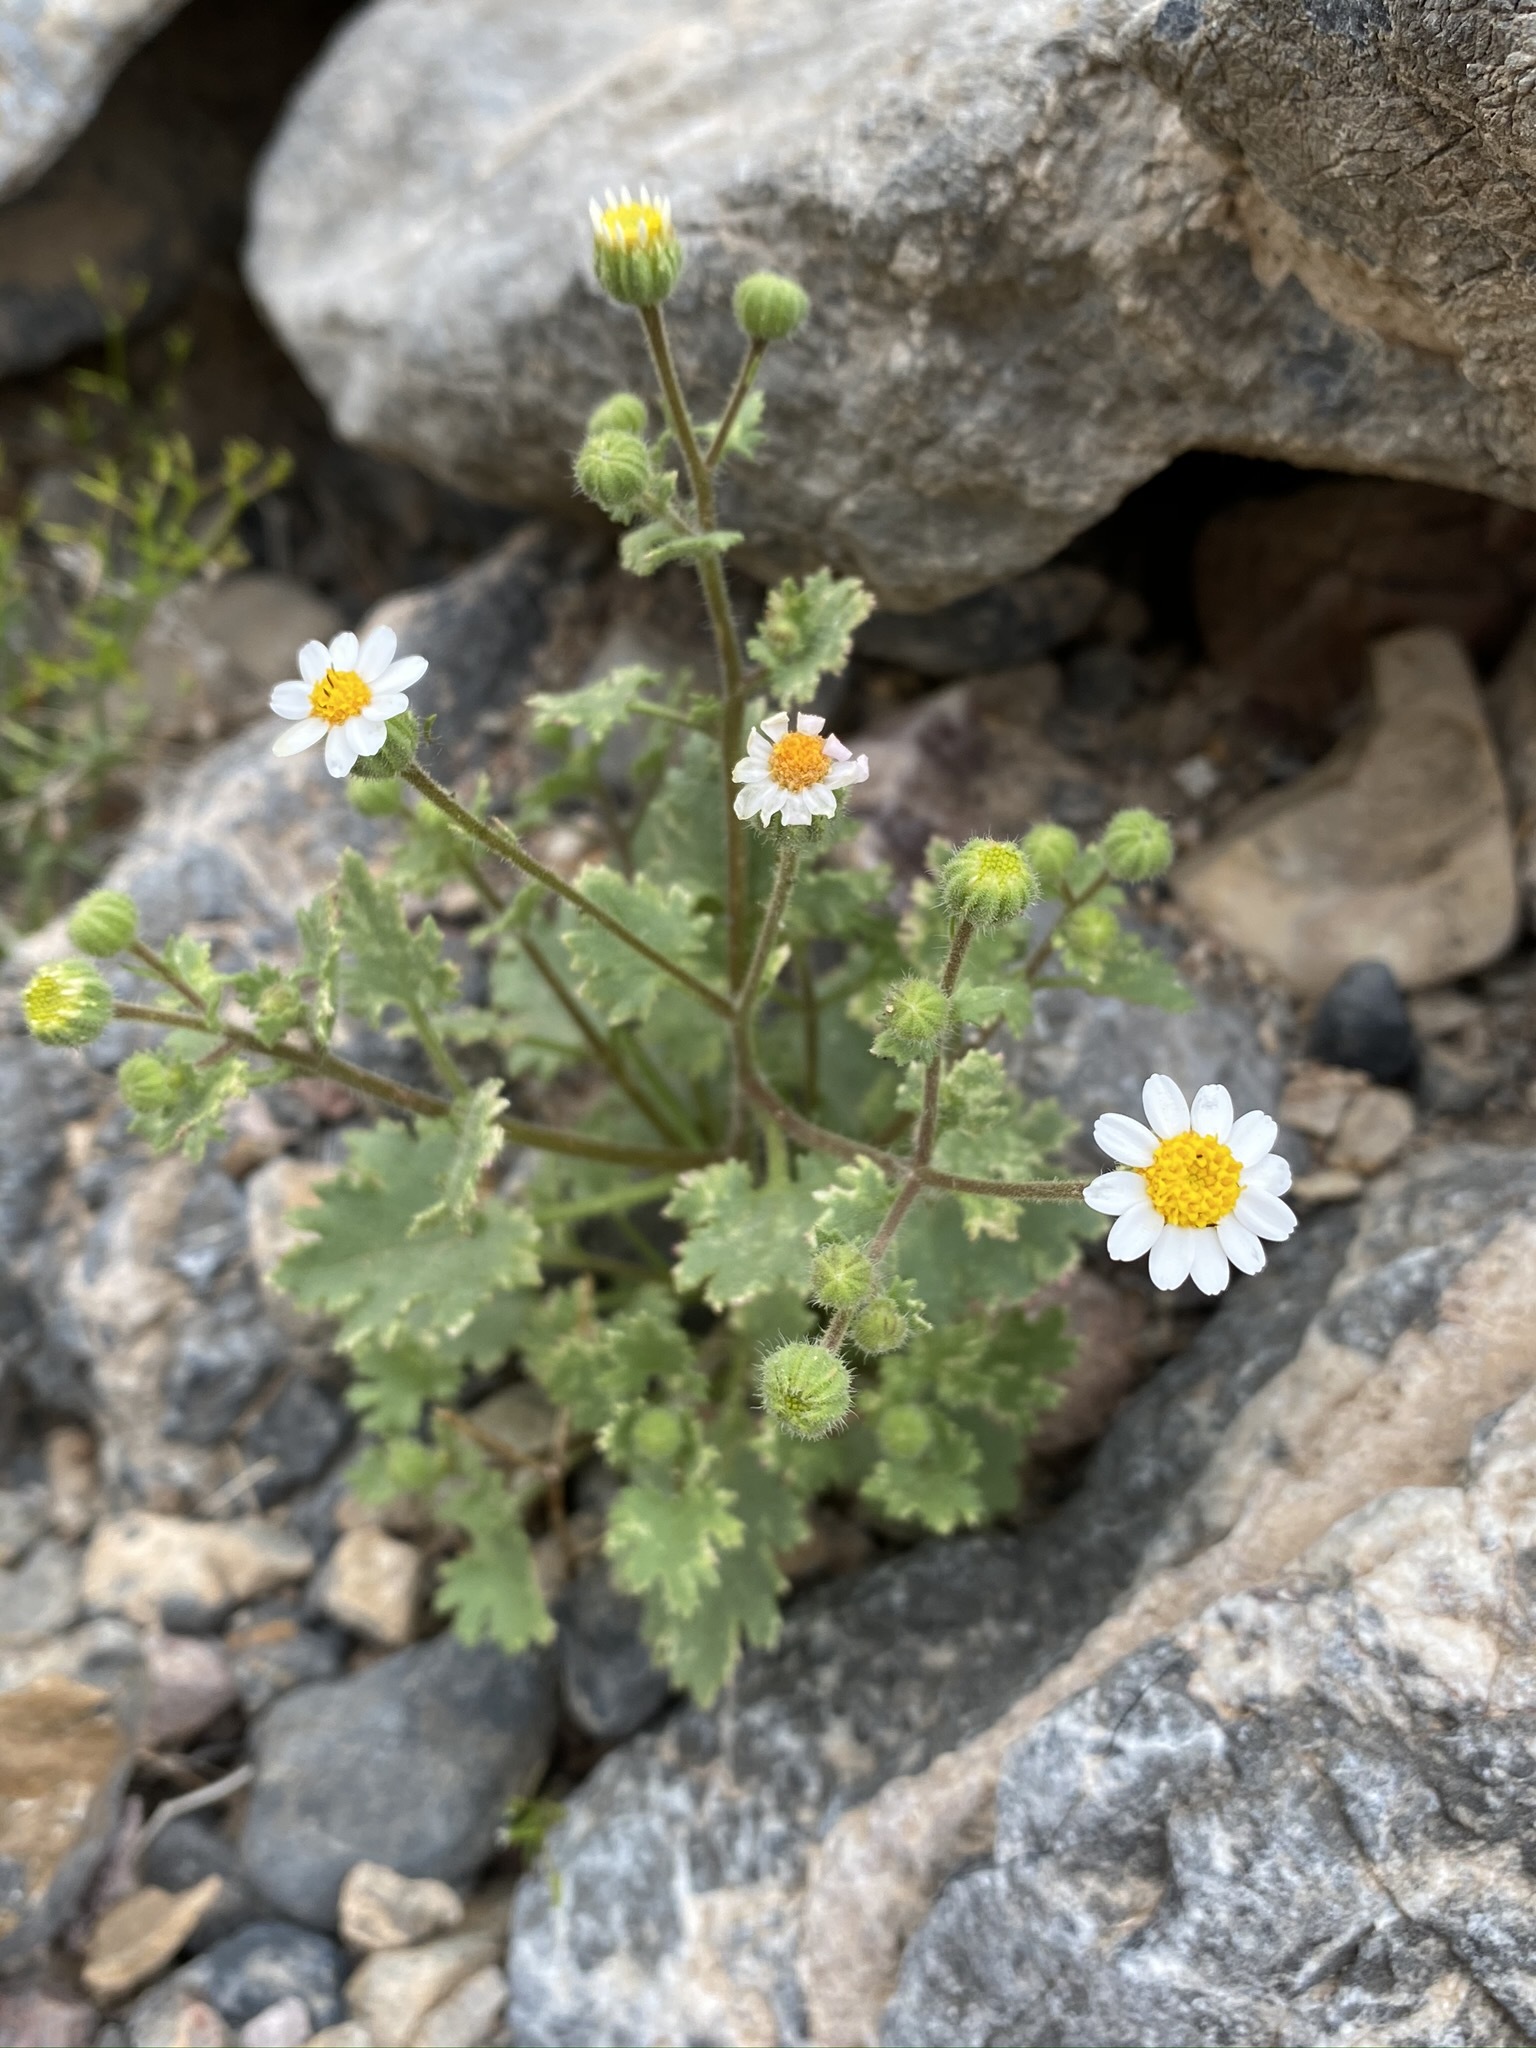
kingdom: Plantae
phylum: Tracheophyta
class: Magnoliopsida
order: Asterales
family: Asteraceae
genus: Laphamia
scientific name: Laphamia emoryi
